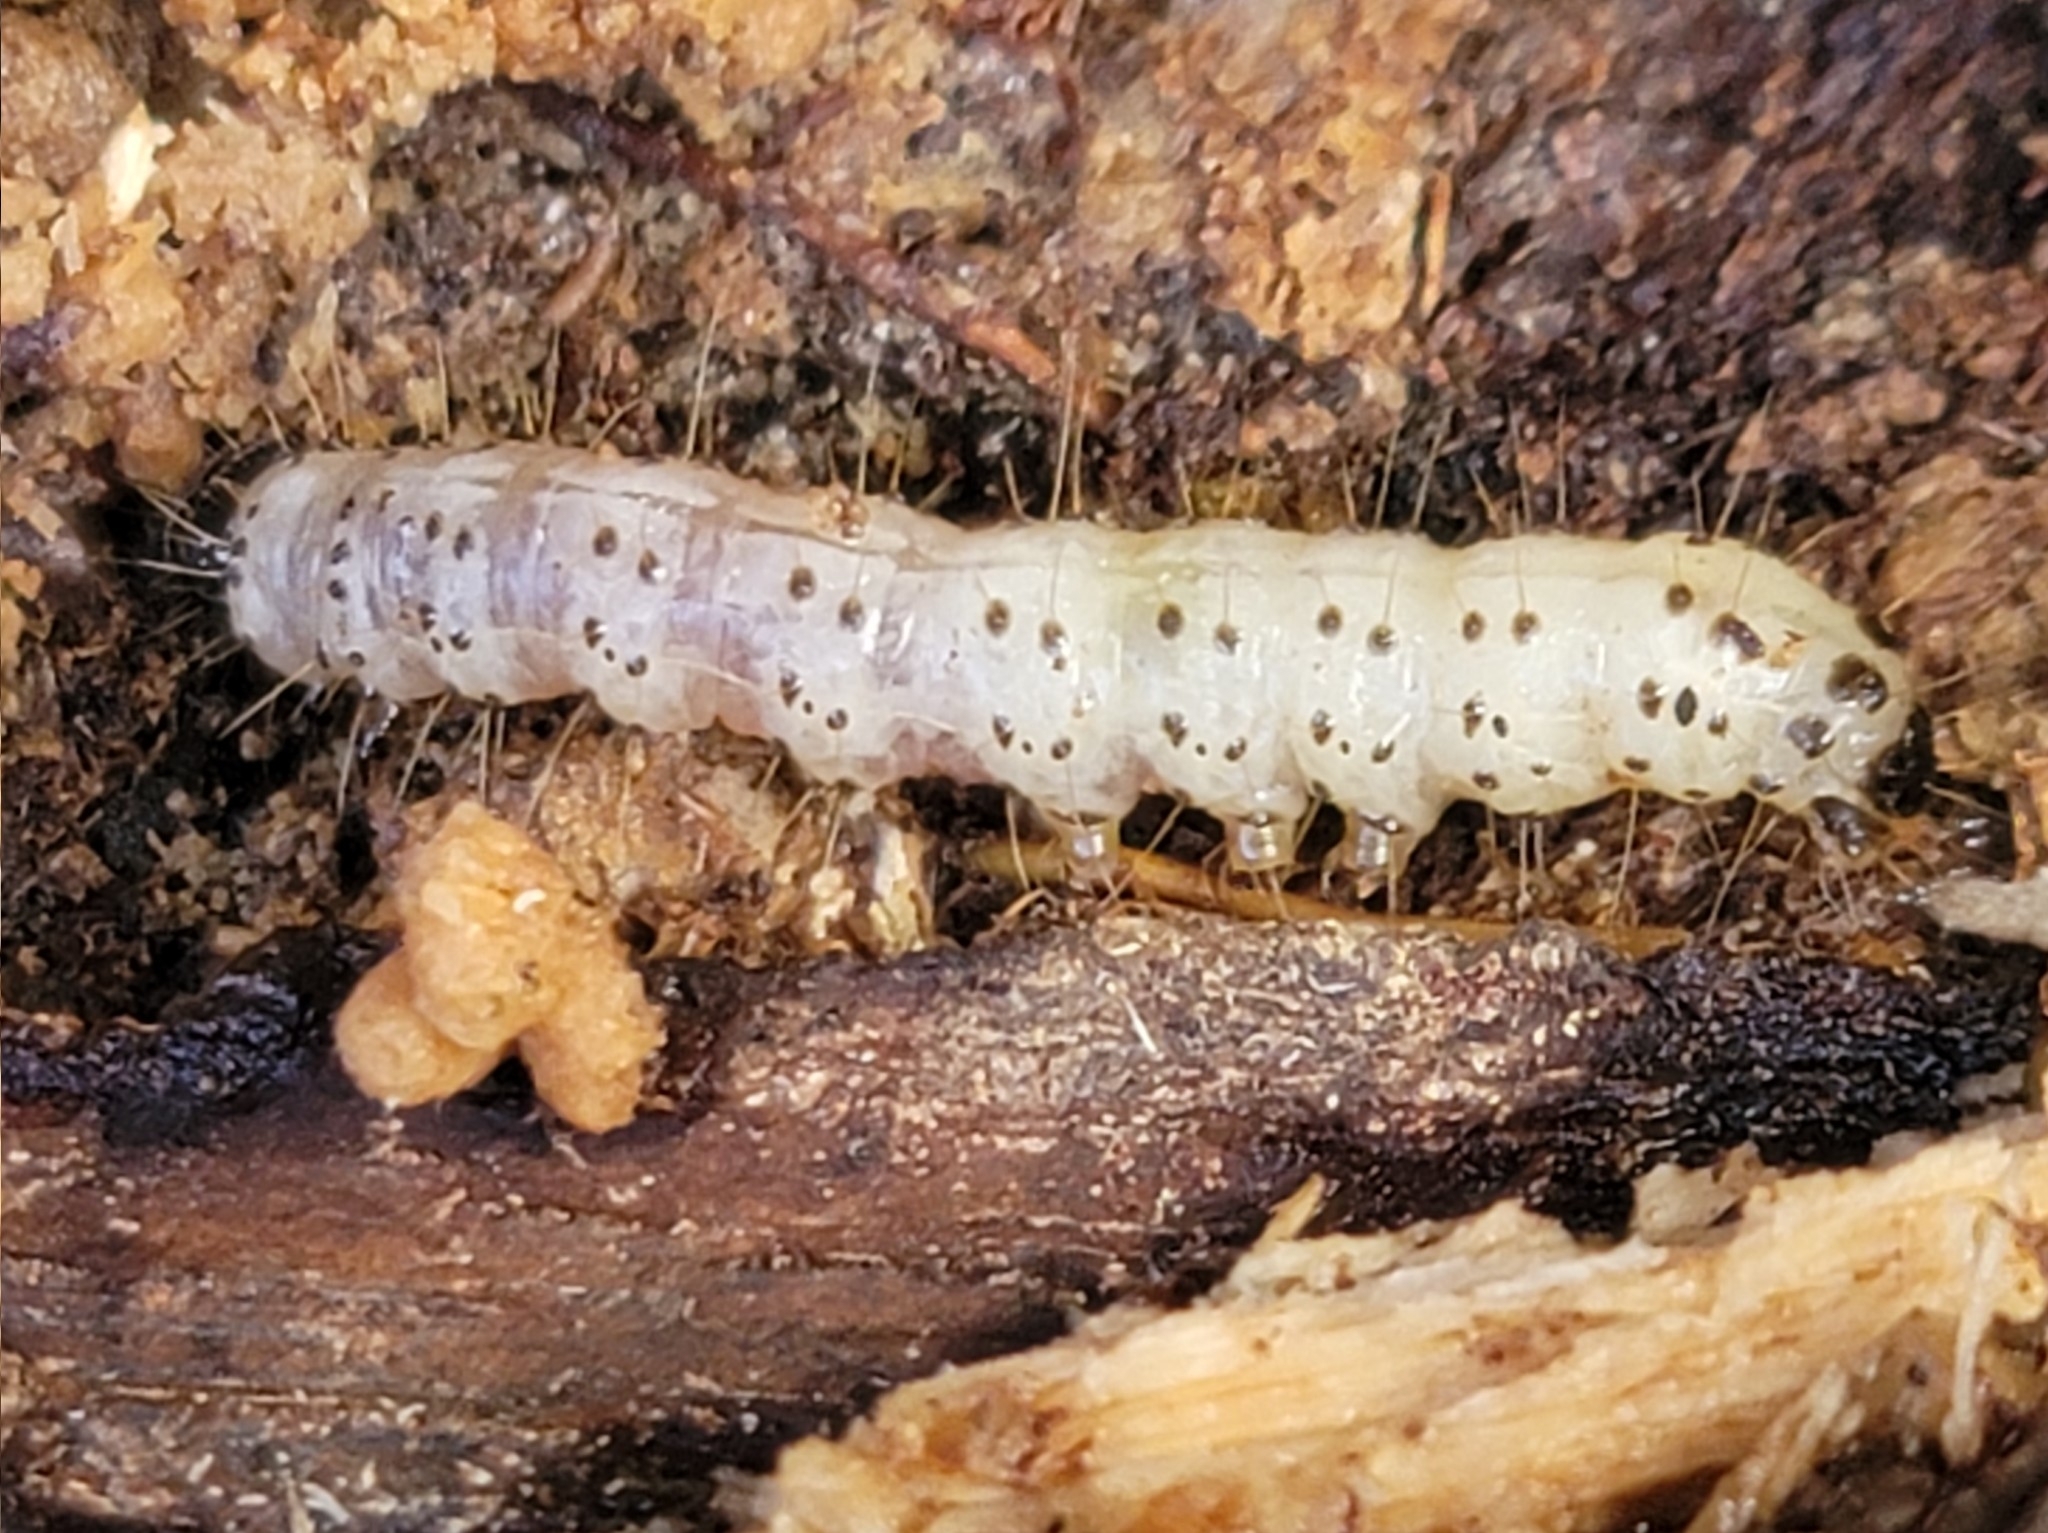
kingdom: Animalia
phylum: Arthropoda
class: Insecta
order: Lepidoptera
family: Erebidae
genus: Scolecocampa
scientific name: Scolecocampa liburna
